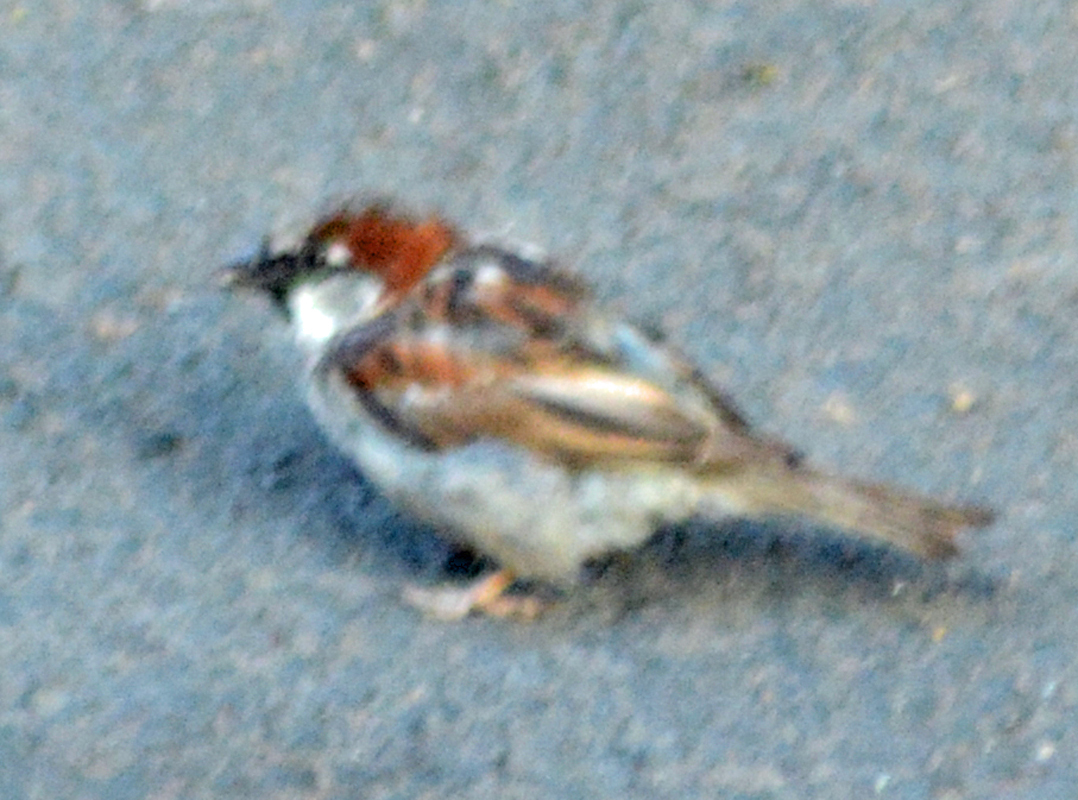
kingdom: Animalia
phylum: Chordata
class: Aves
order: Passeriformes
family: Passeridae
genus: Passer
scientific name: Passer domesticus
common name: House sparrow
